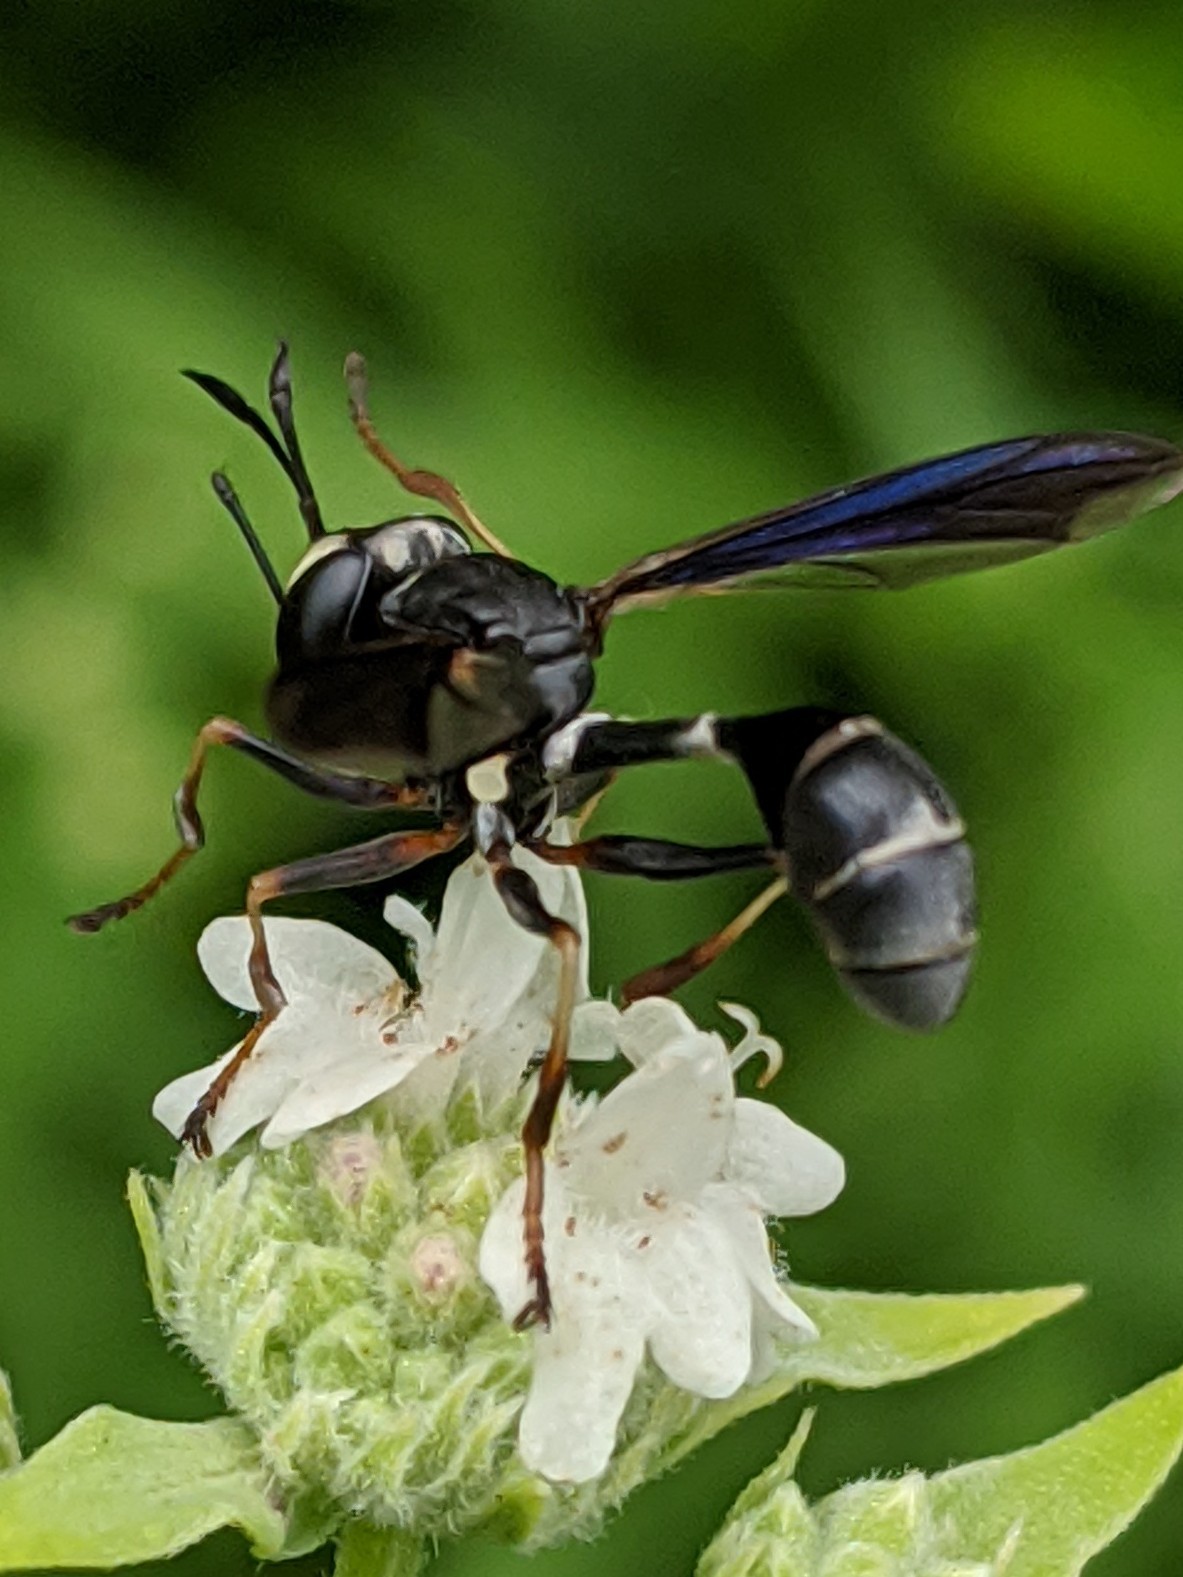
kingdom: Animalia
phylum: Arthropoda
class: Insecta
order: Diptera
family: Conopidae
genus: Physocephala
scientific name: Physocephala tibialis
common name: Common eastern physocephala
